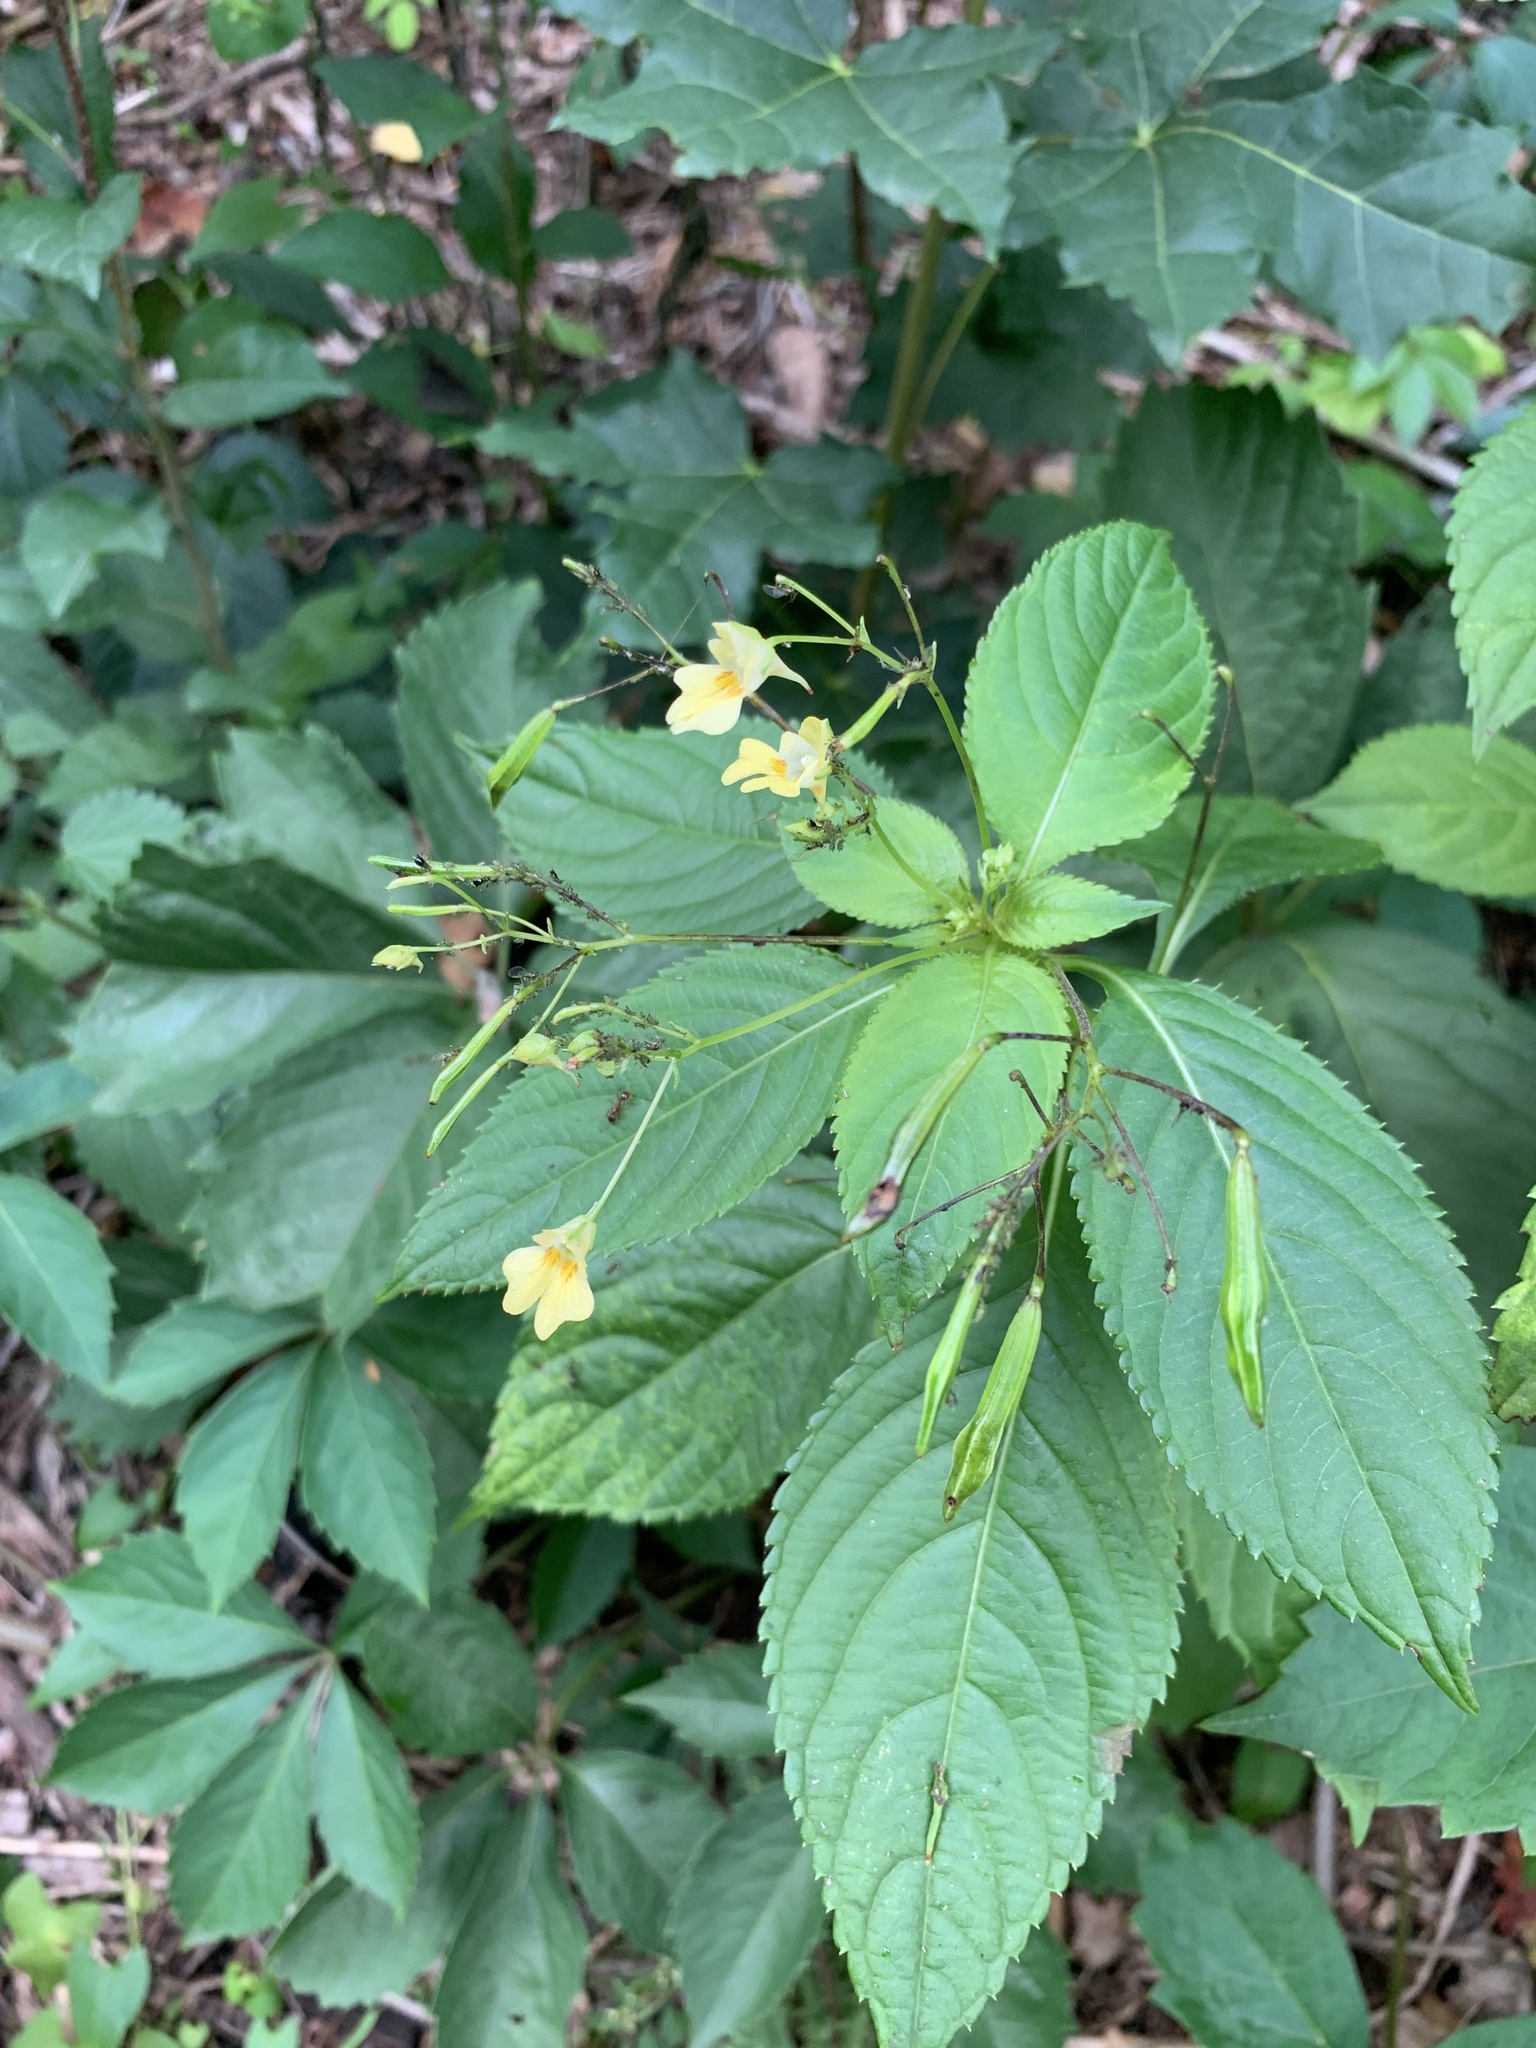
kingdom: Plantae
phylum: Tracheophyta
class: Magnoliopsida
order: Ericales
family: Balsaminaceae
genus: Impatiens
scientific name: Impatiens parviflora
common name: Small balsam
